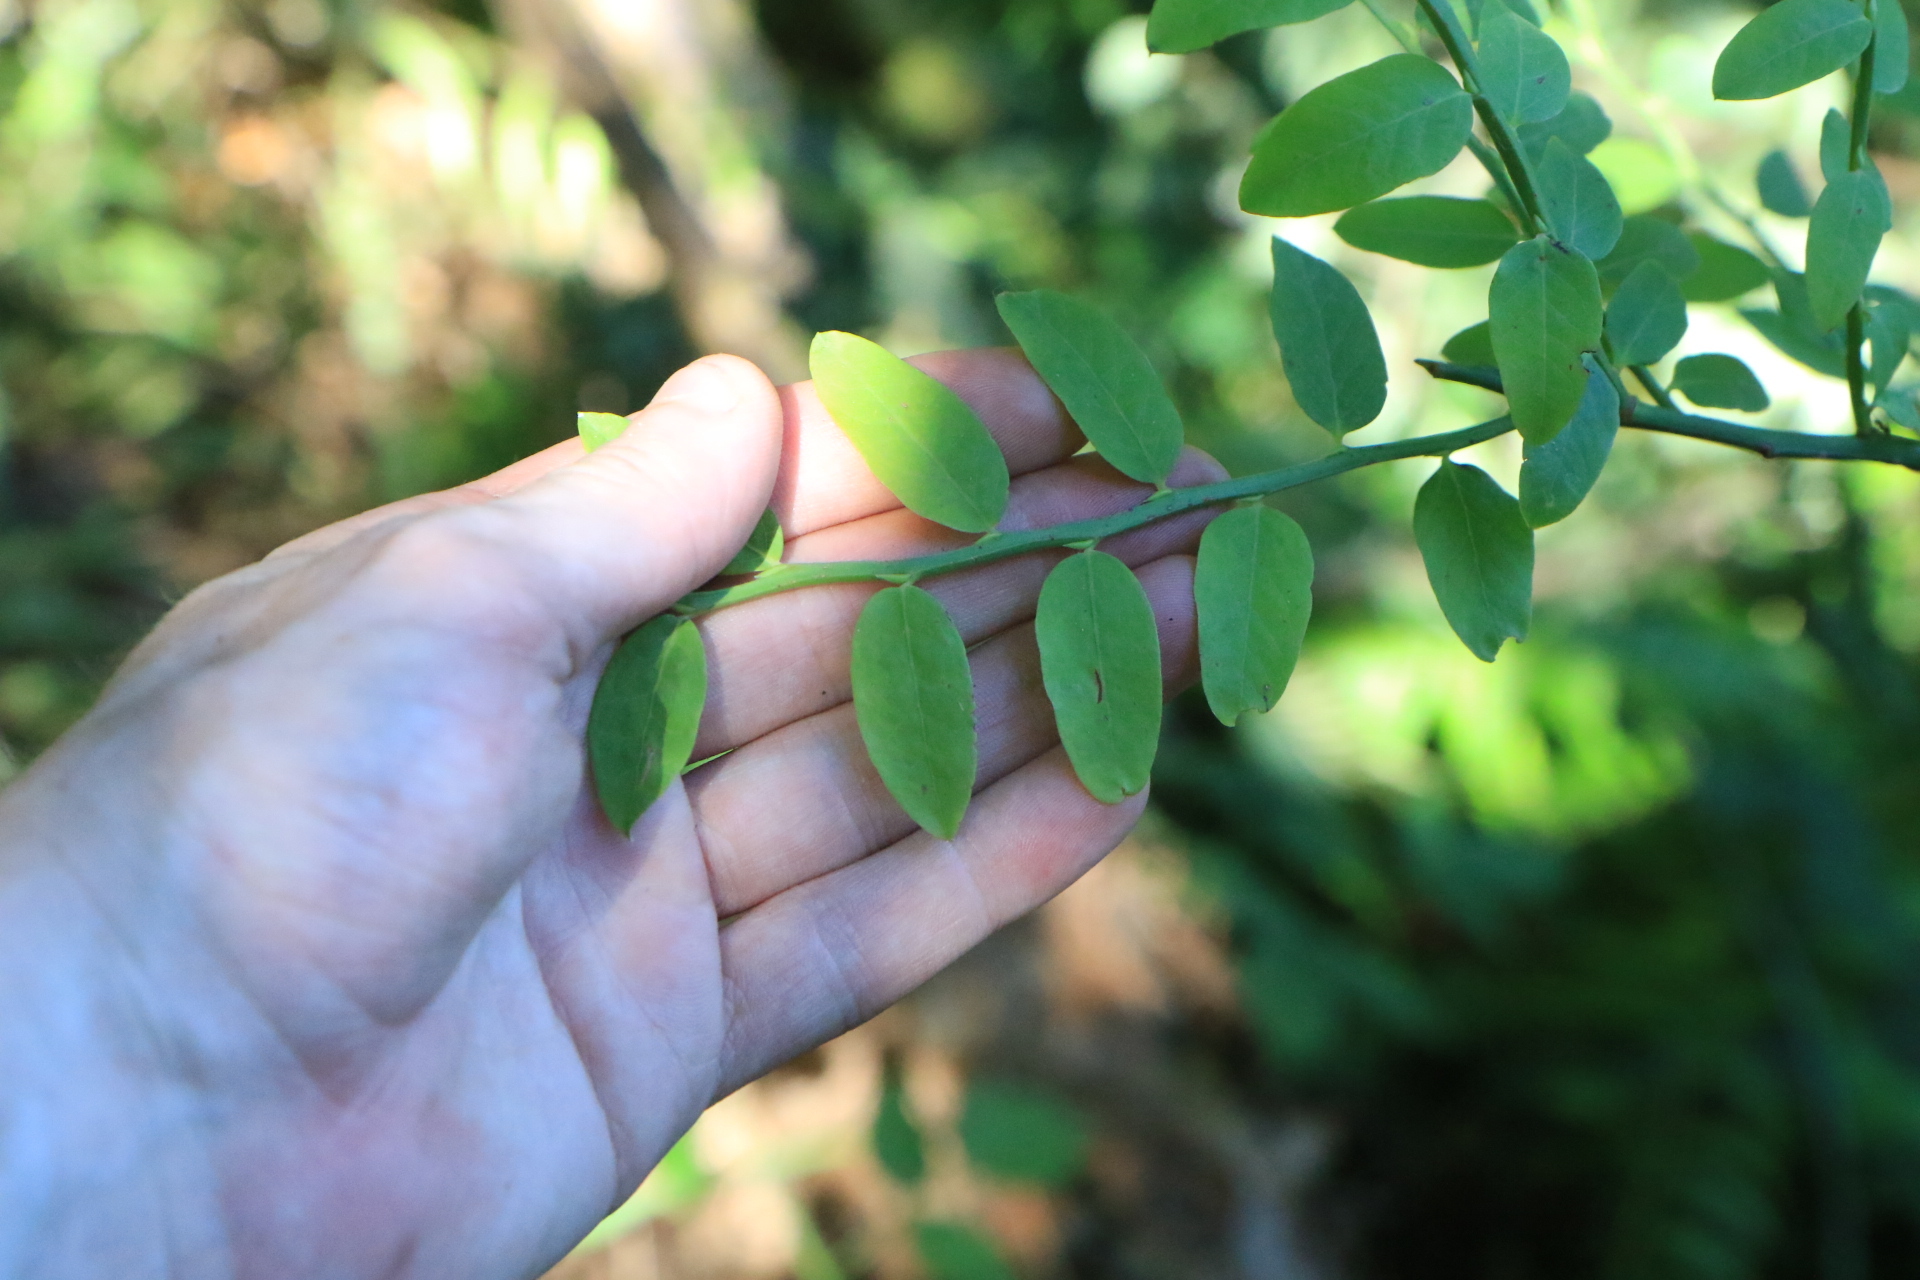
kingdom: Plantae
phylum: Tracheophyta
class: Magnoliopsida
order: Ericales
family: Ericaceae
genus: Vaccinium
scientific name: Vaccinium parvifolium
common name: Red-huckleberry
